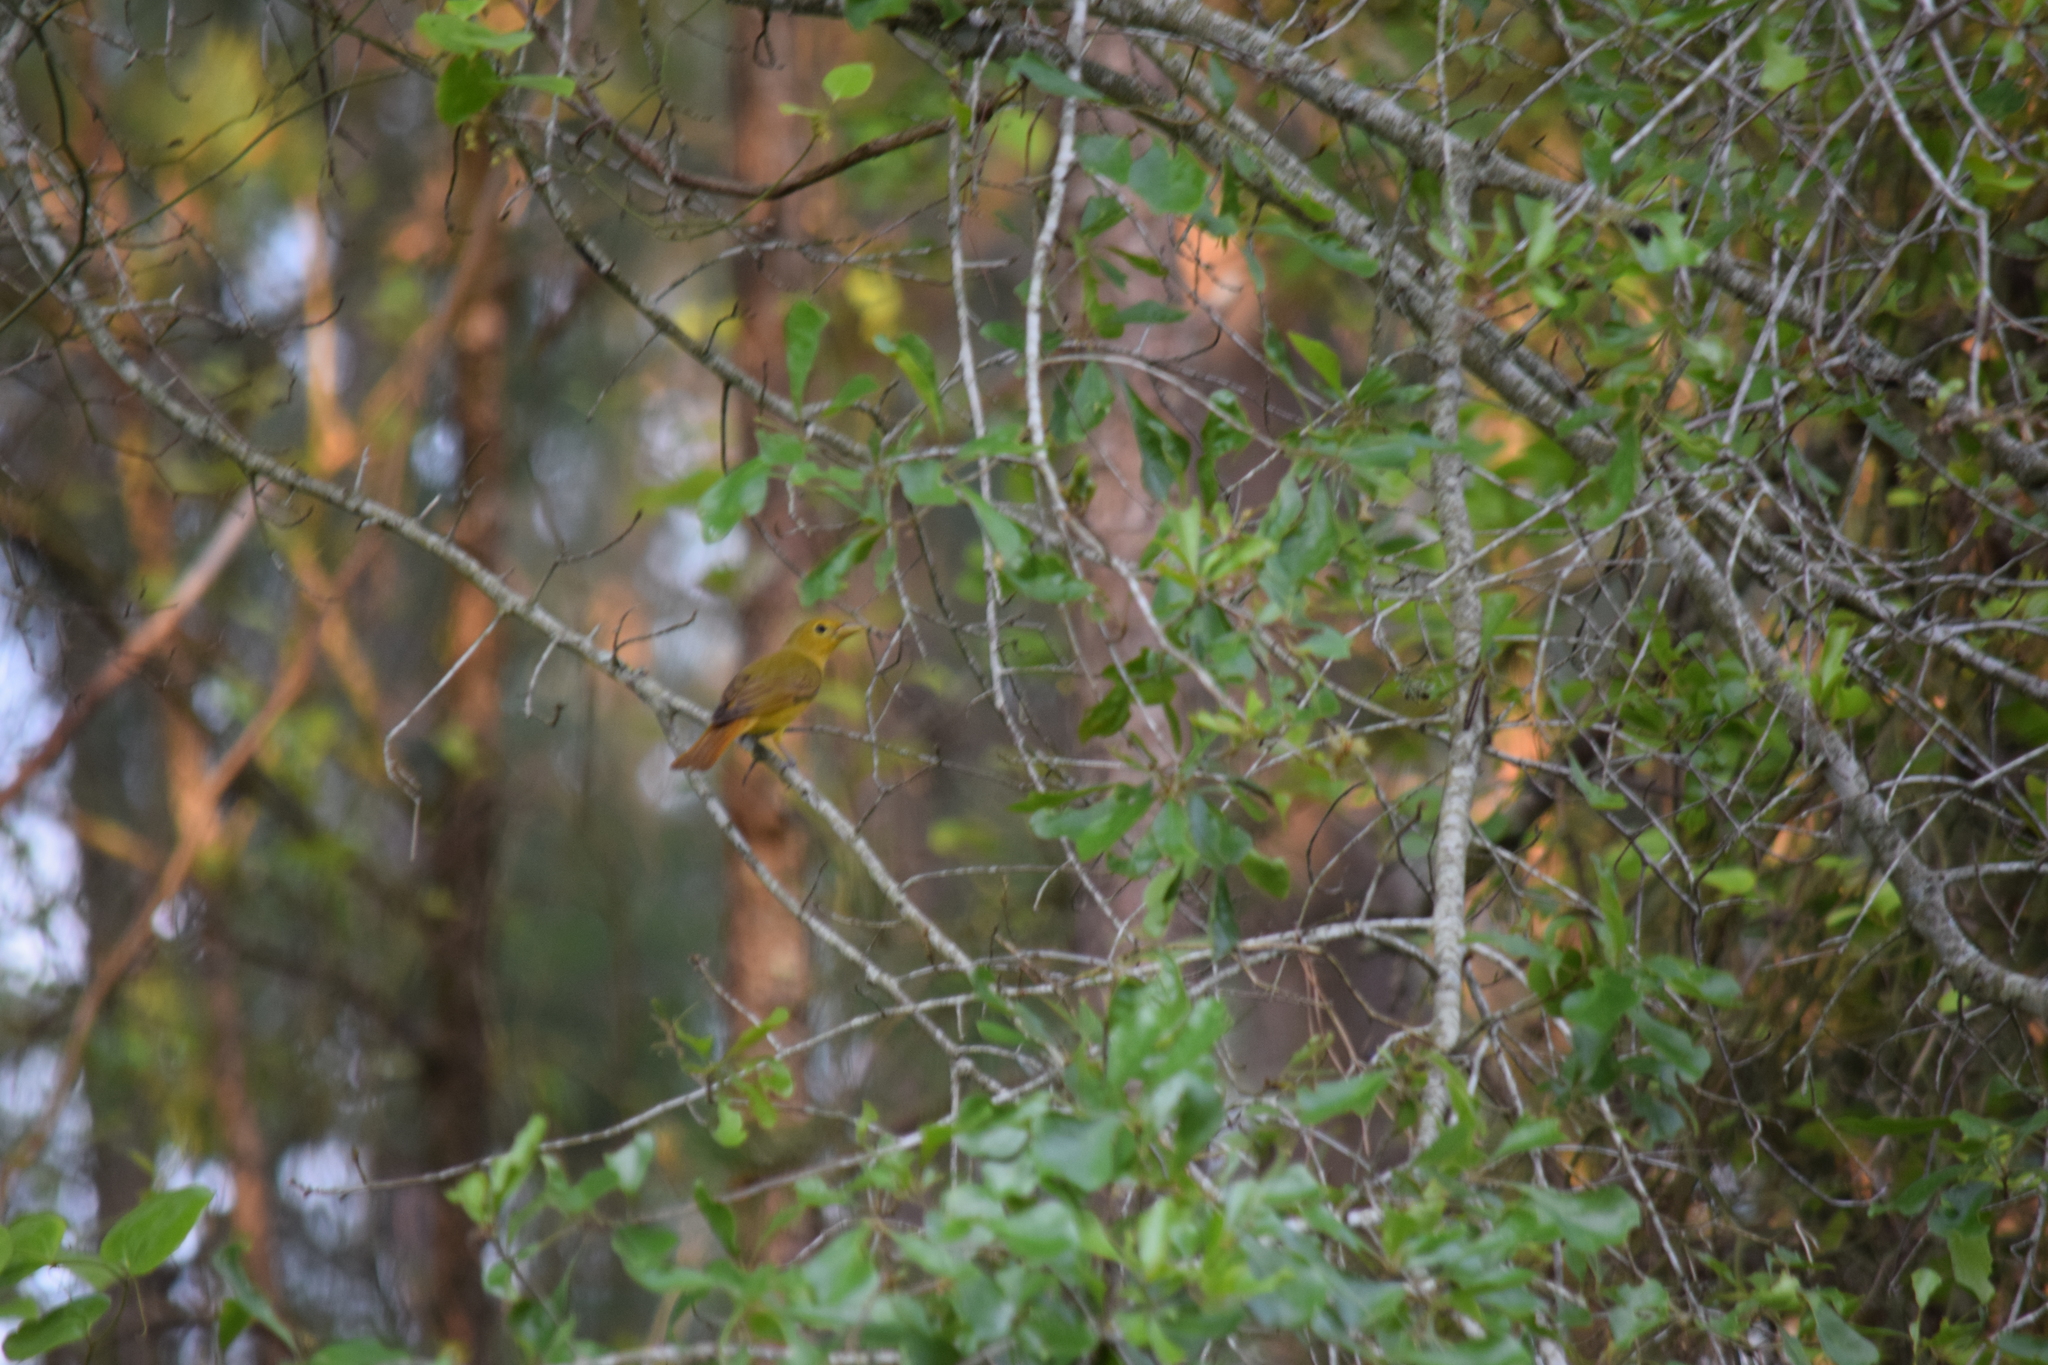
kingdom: Animalia
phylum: Chordata
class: Aves
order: Passeriformes
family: Cardinalidae
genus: Piranga
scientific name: Piranga rubra
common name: Summer tanager
